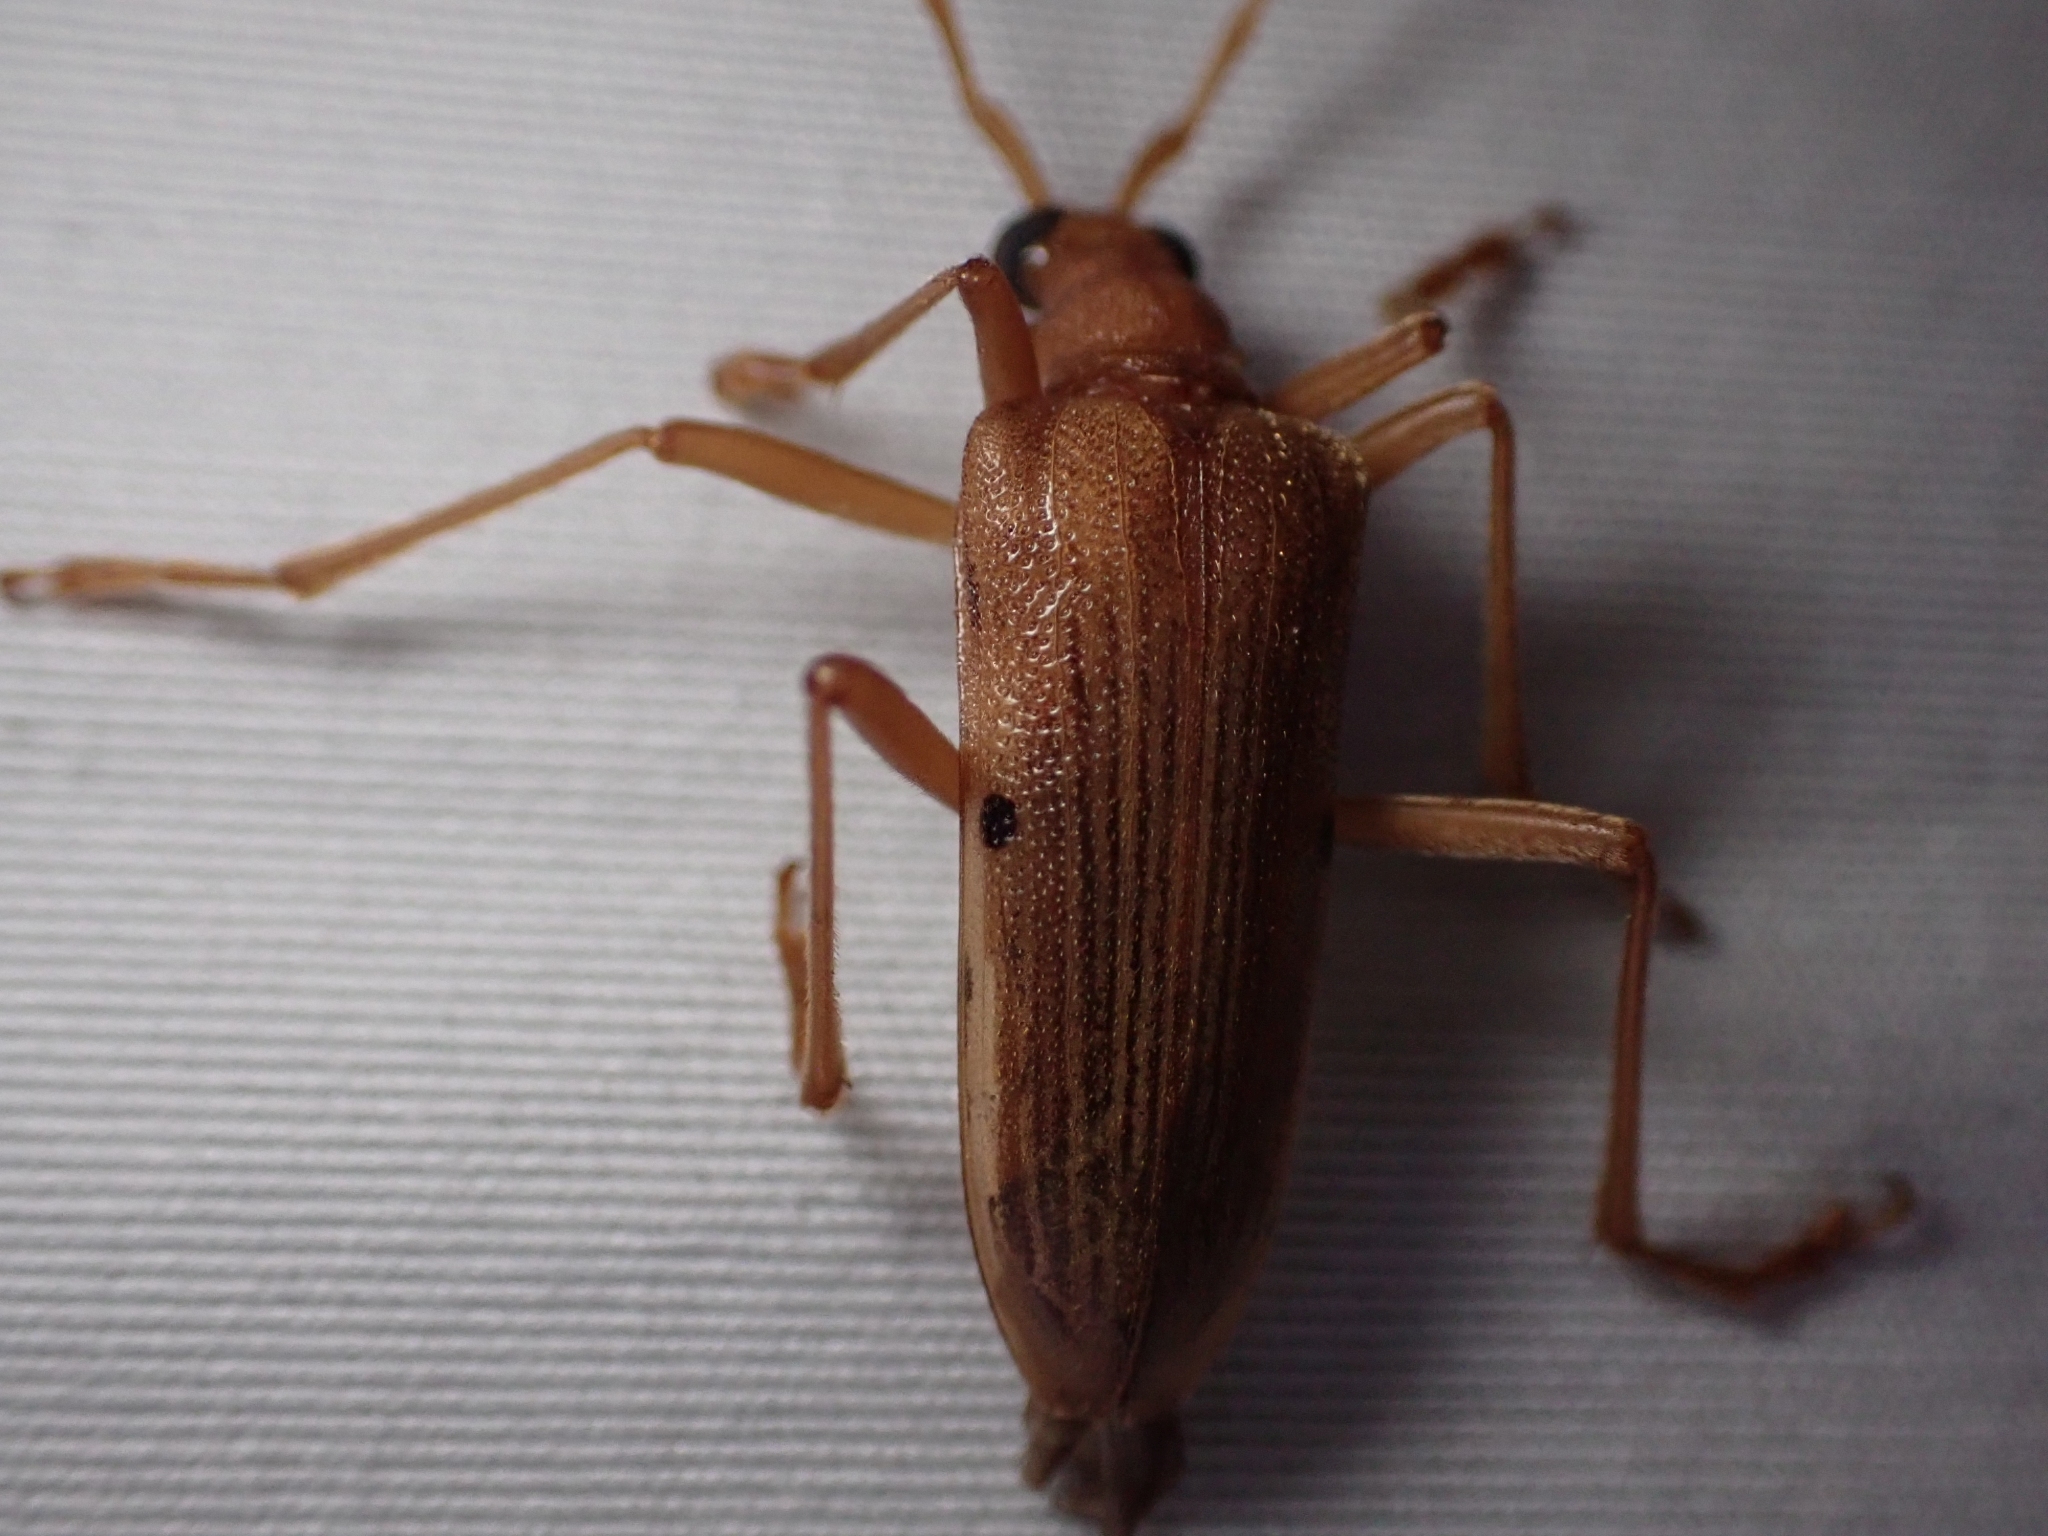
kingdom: Animalia
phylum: Arthropoda
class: Insecta
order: Coleoptera
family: Cerambycidae
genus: Centrodera
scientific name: Centrodera spurca
